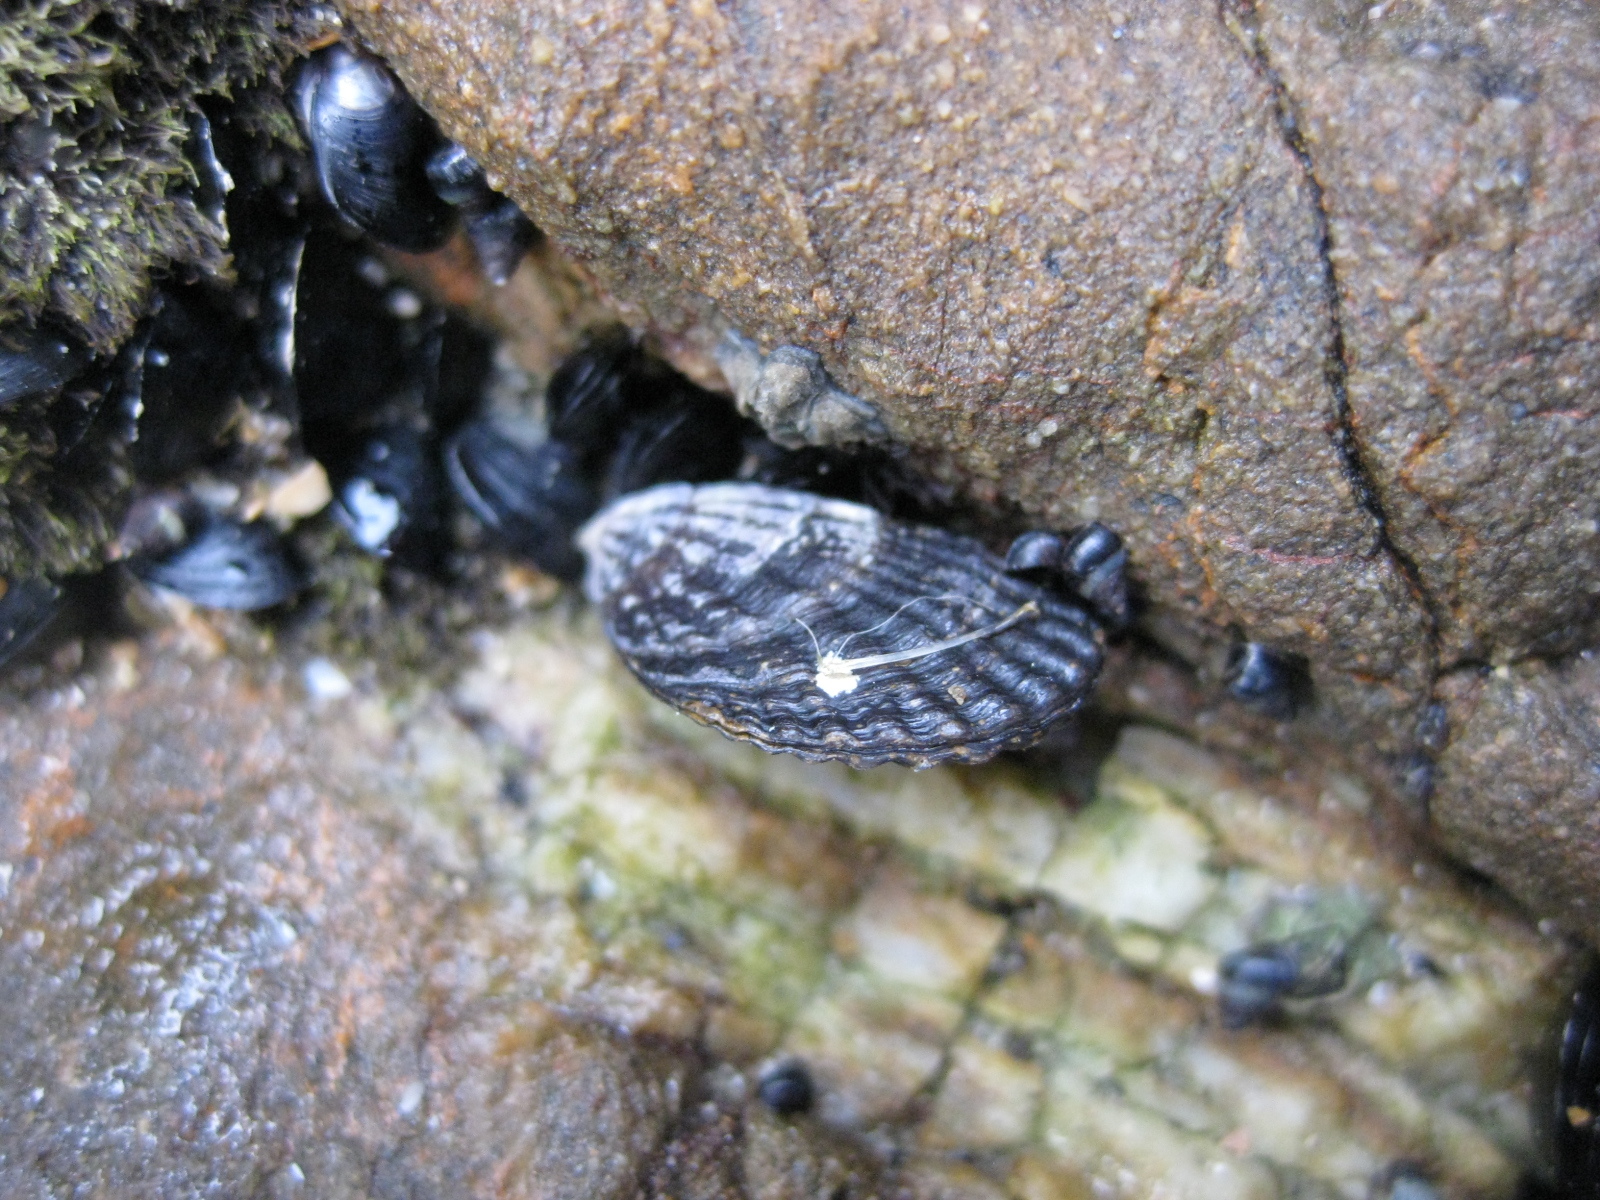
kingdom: Animalia
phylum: Mollusca
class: Bivalvia
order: Mytilida
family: Mytilidae
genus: Aulacomya
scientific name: Aulacomya maoriana
